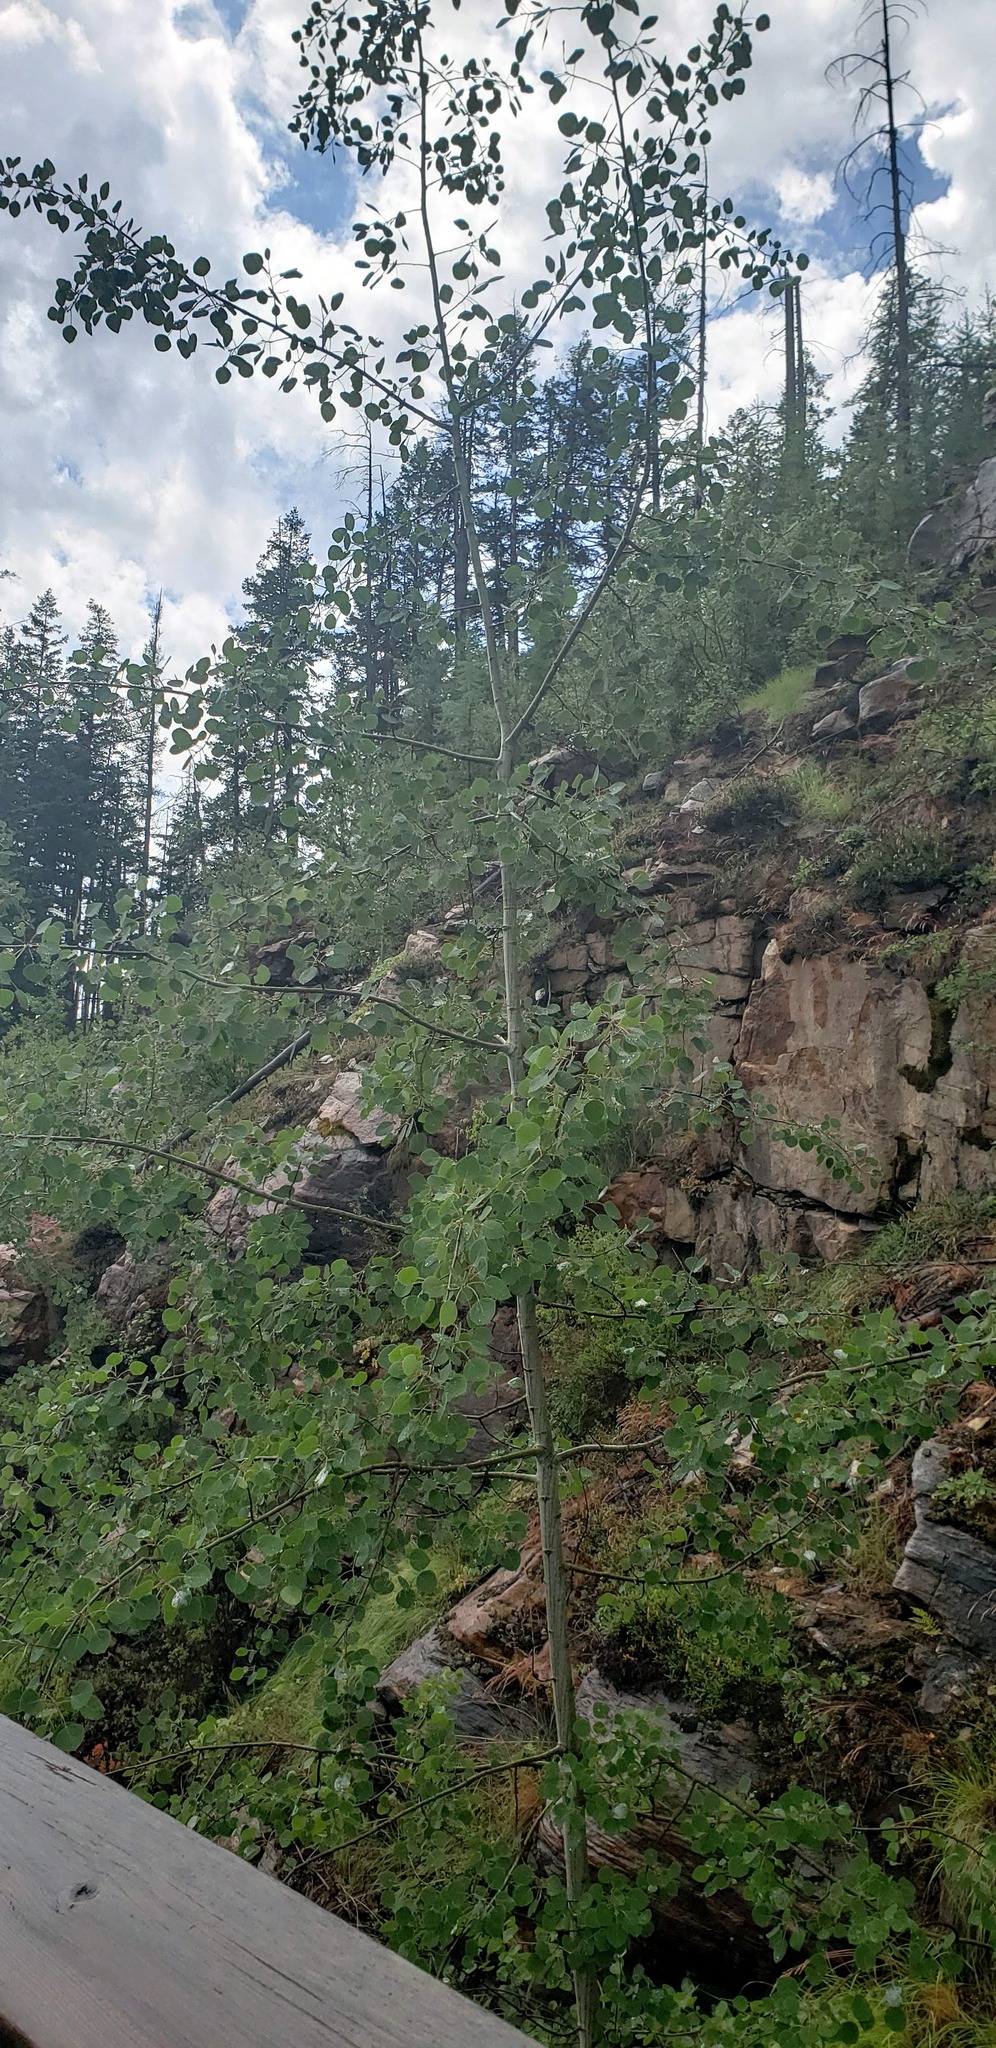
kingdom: Plantae
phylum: Tracheophyta
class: Magnoliopsida
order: Malpighiales
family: Salicaceae
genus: Populus
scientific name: Populus tremuloides
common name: Quaking aspen
